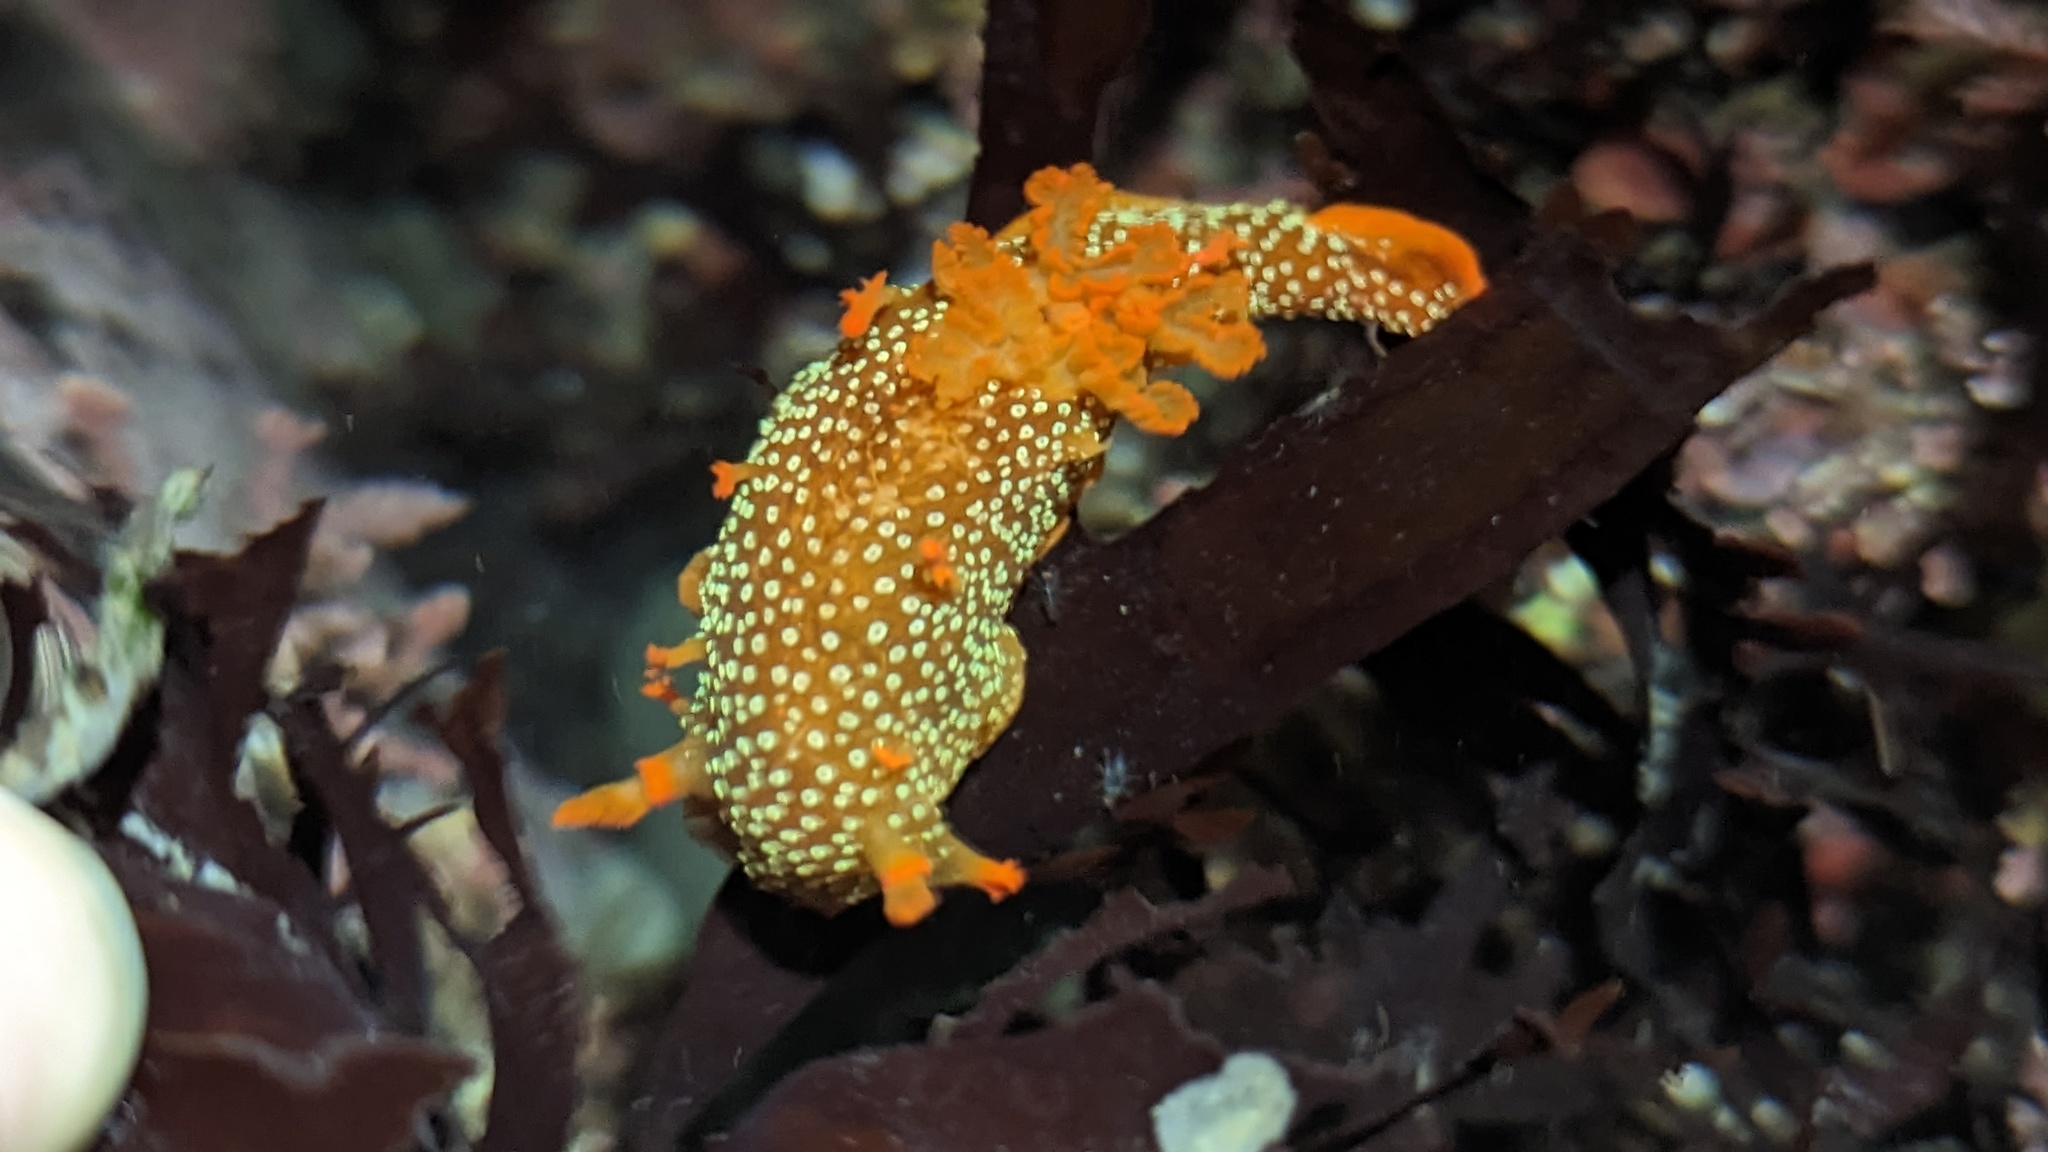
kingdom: Animalia
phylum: Mollusca
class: Gastropoda
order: Nudibranchia
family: Polyceridae
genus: Triopha
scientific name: Triopha maculata
